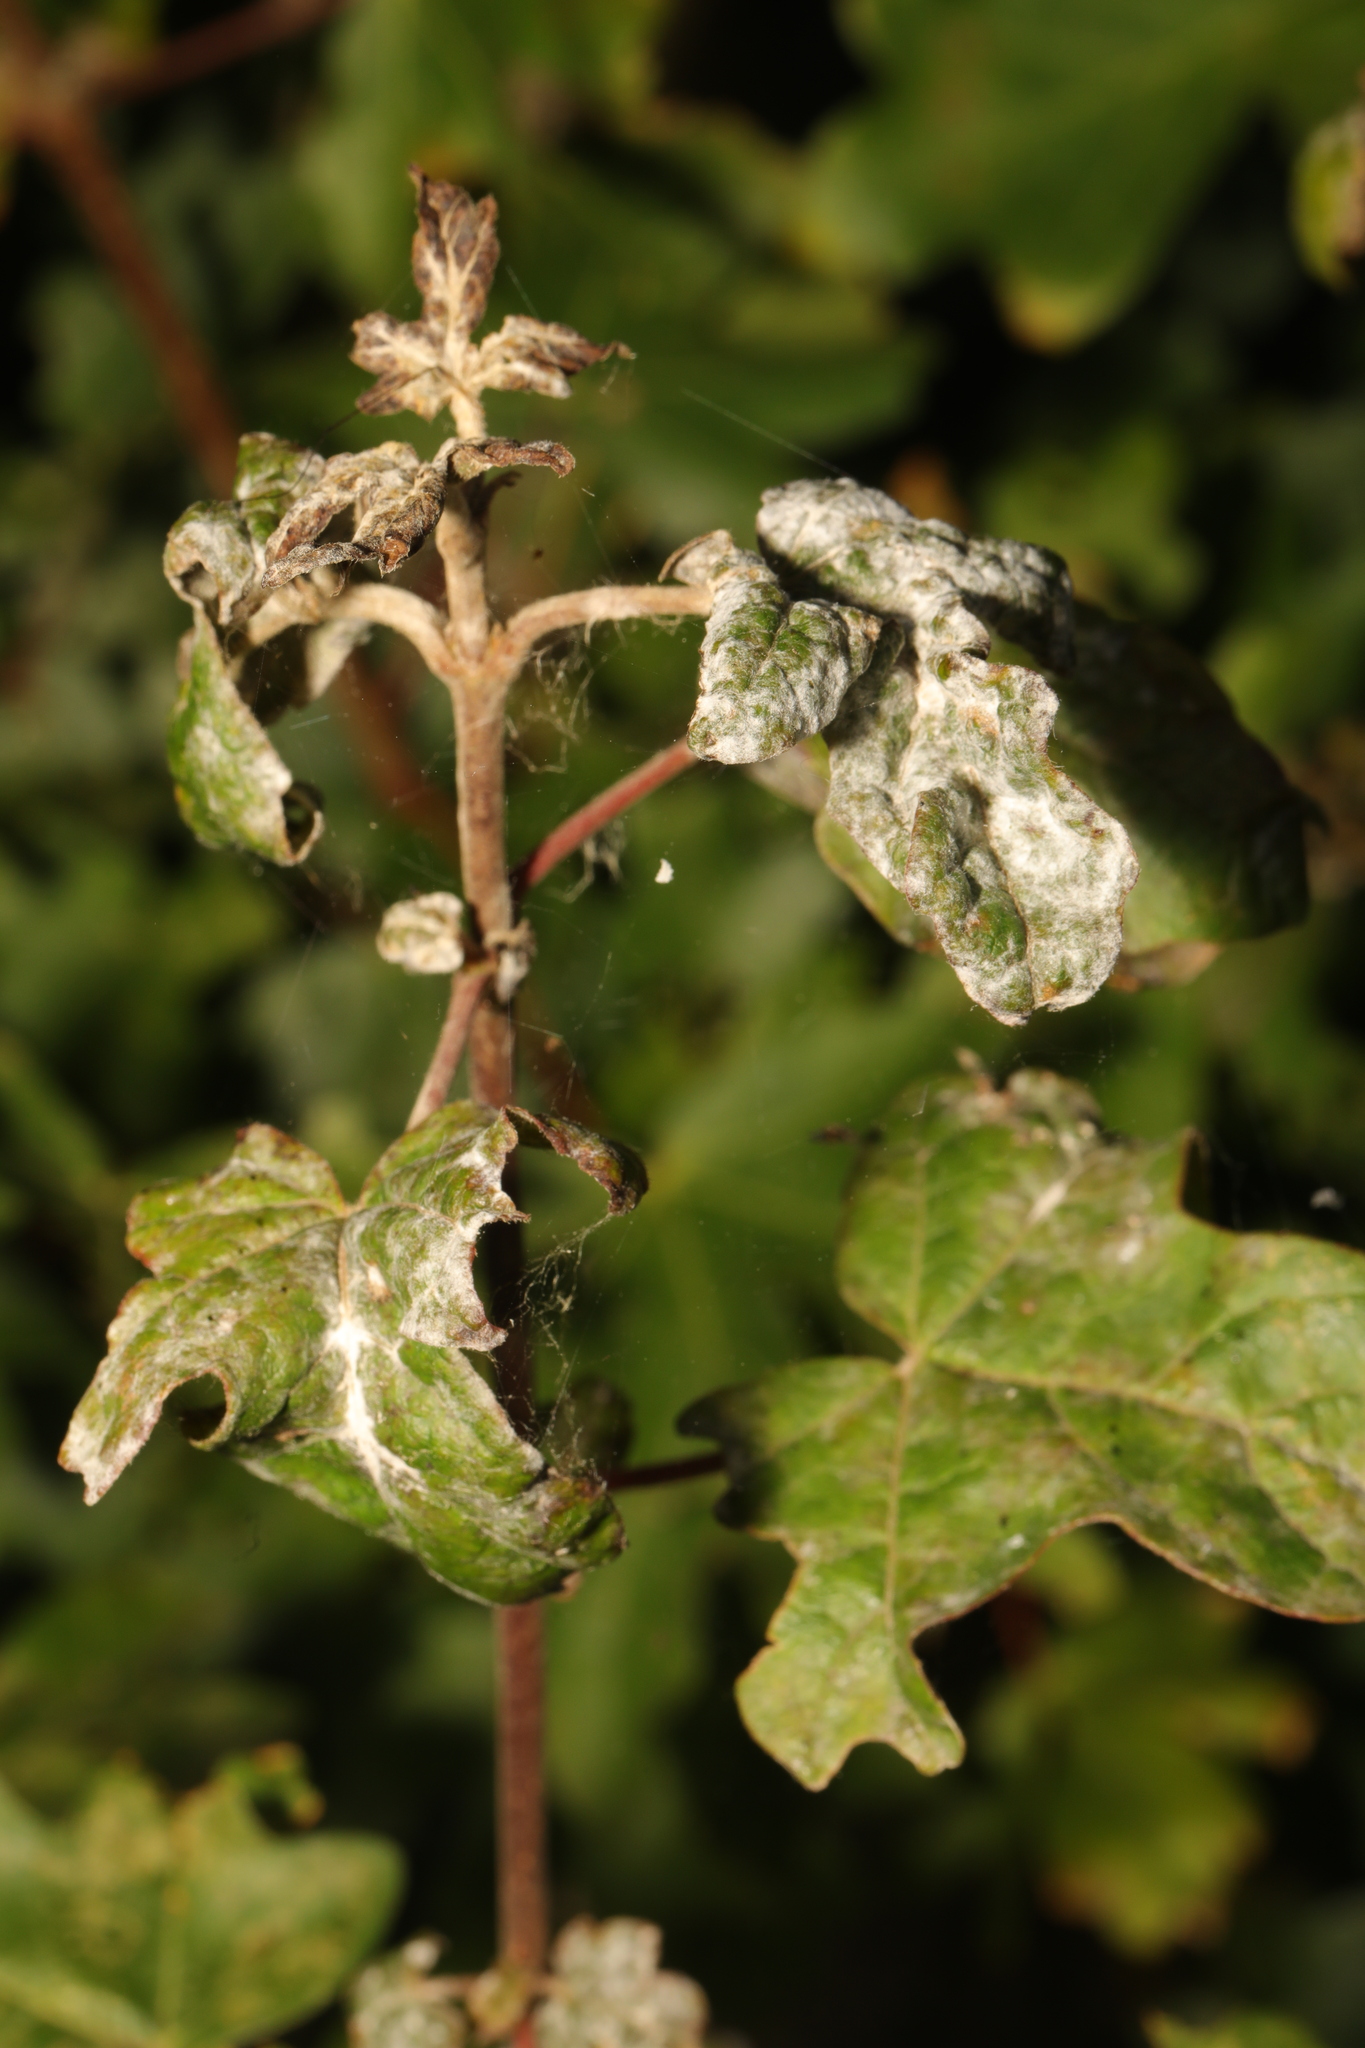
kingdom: Fungi
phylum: Ascomycota
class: Leotiomycetes
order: Helotiales
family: Erysiphaceae
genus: Sawadaea
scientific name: Sawadaea bicornis
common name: Maple mildew
